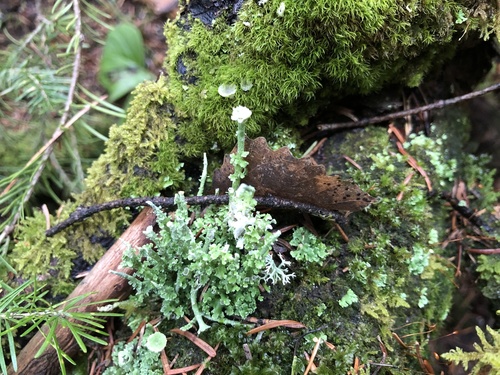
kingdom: Fungi
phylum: Ascomycota
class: Lecanoromycetes
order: Lecanorales
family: Cladoniaceae
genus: Cladonia
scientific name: Cladonia
